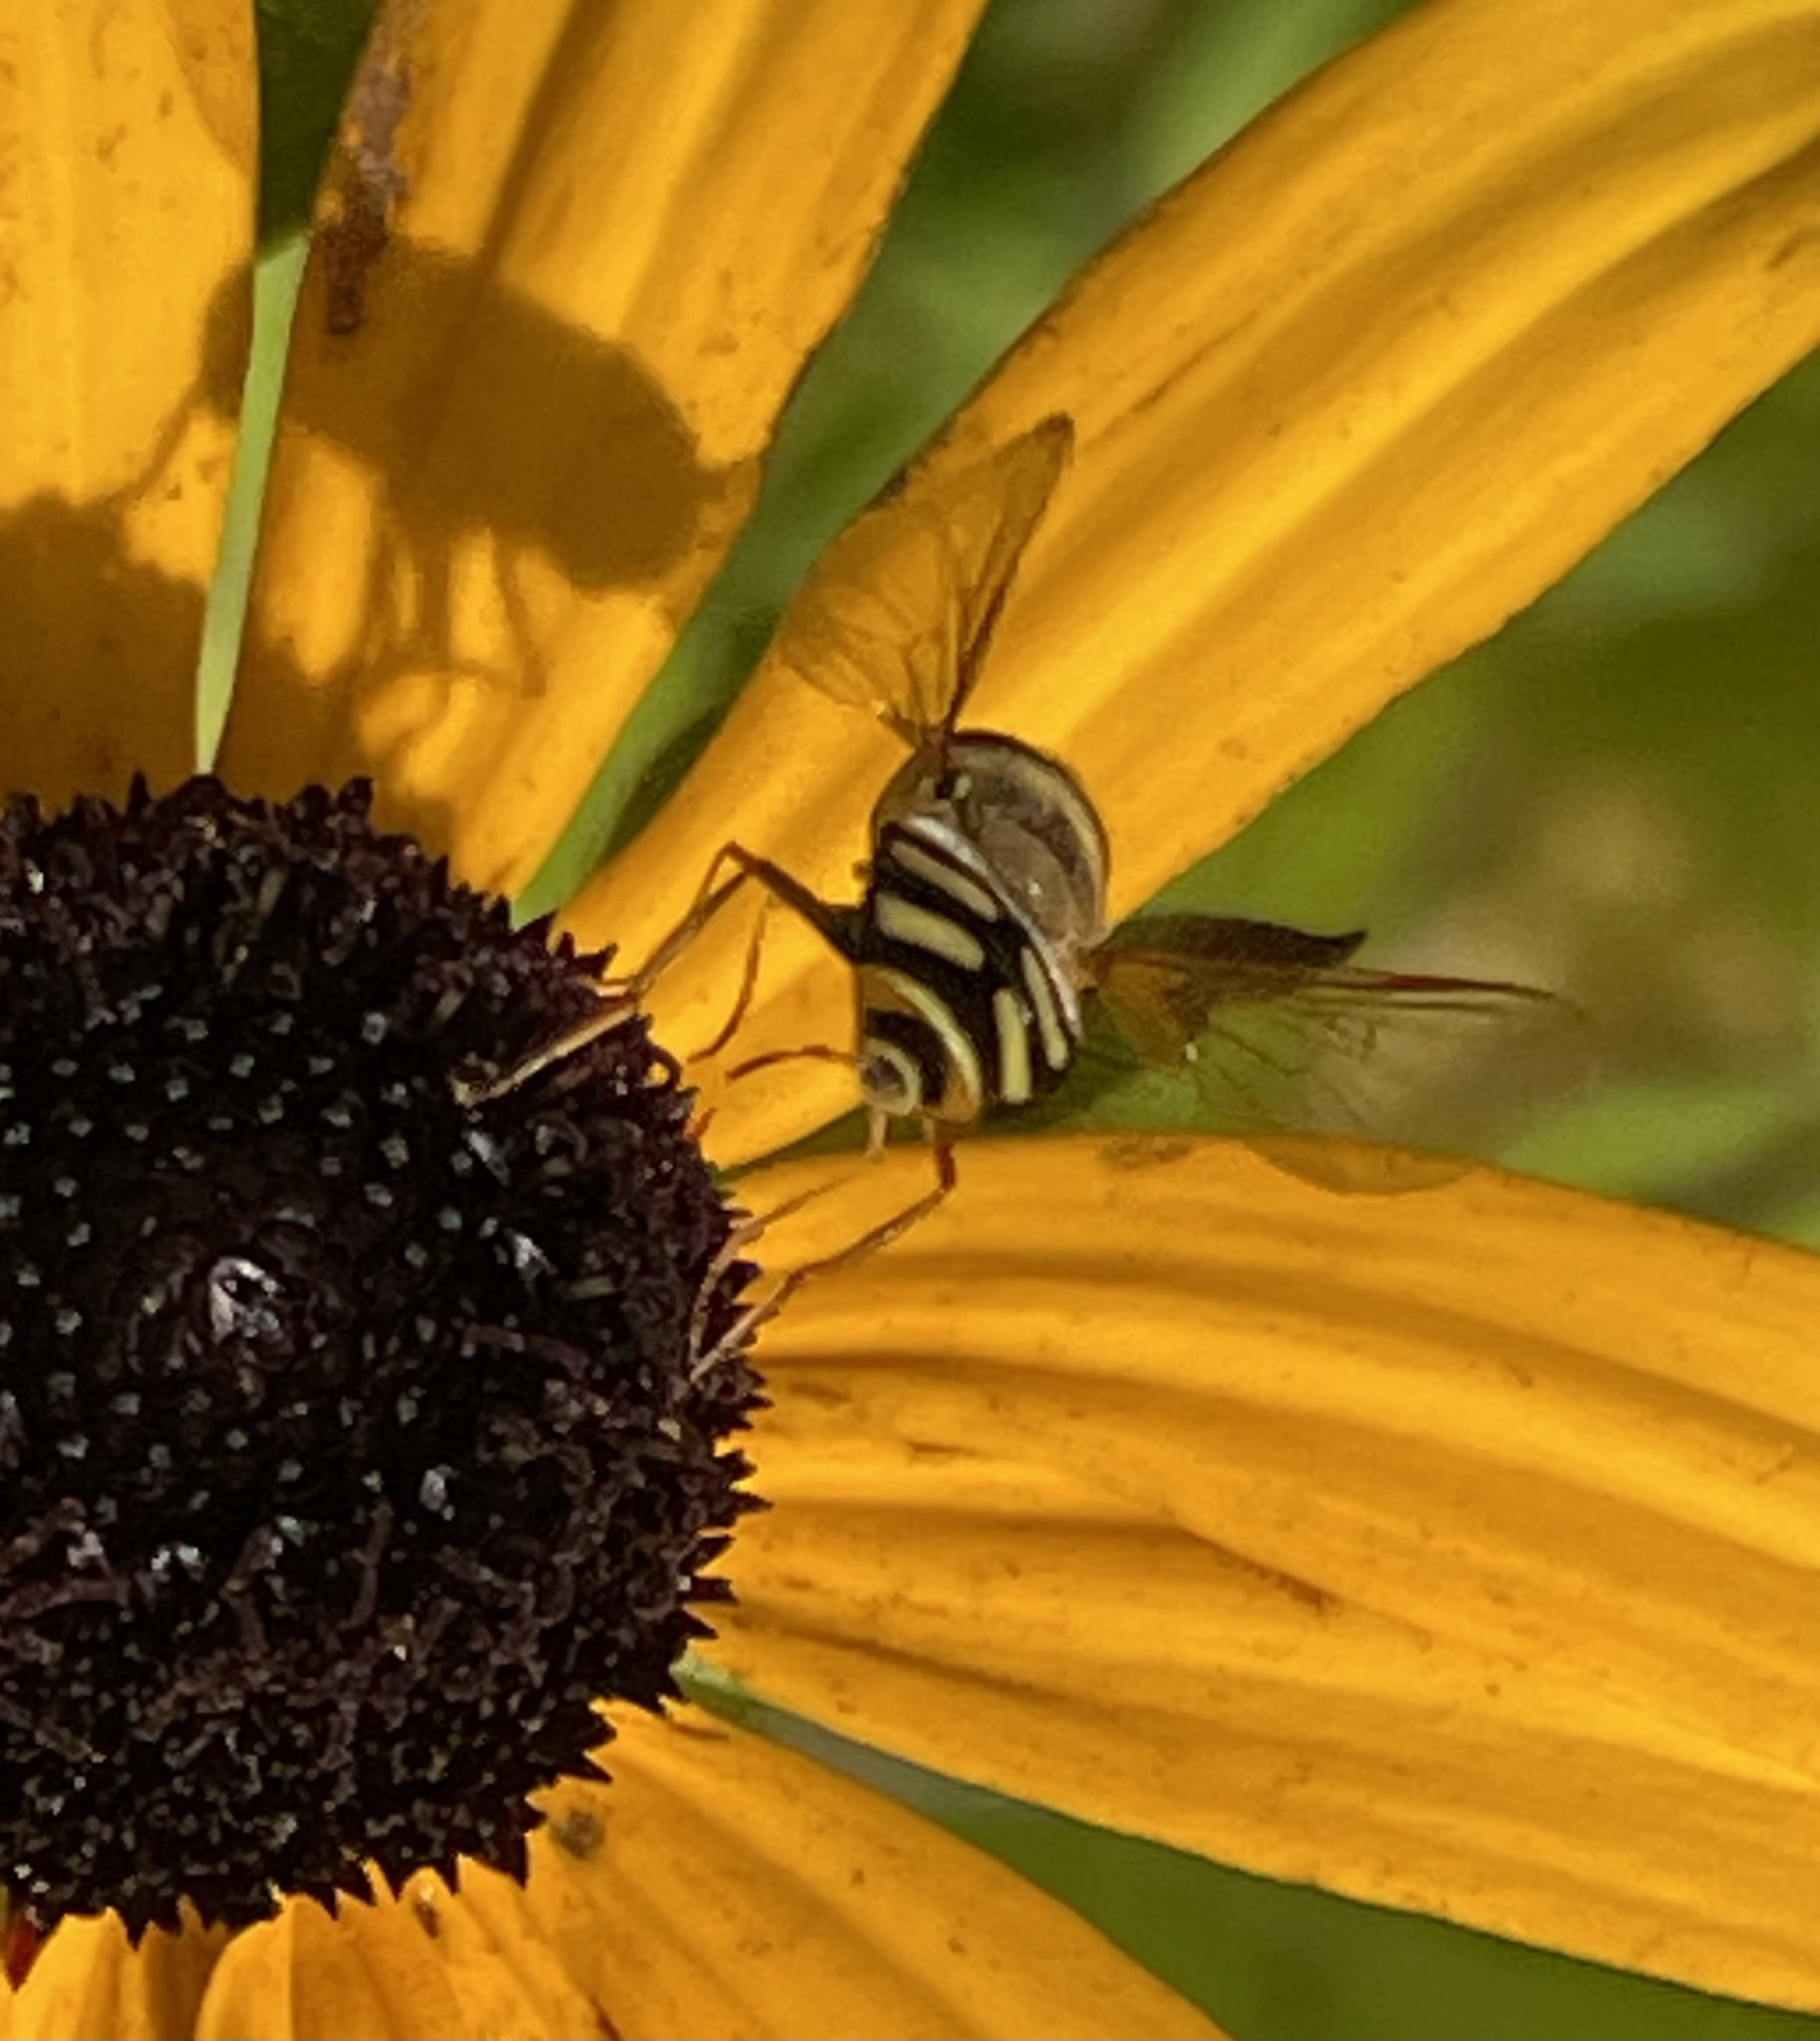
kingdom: Animalia
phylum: Arthropoda
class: Insecta
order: Diptera
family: Syrphidae
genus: Eupeodes
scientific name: Eupeodes
